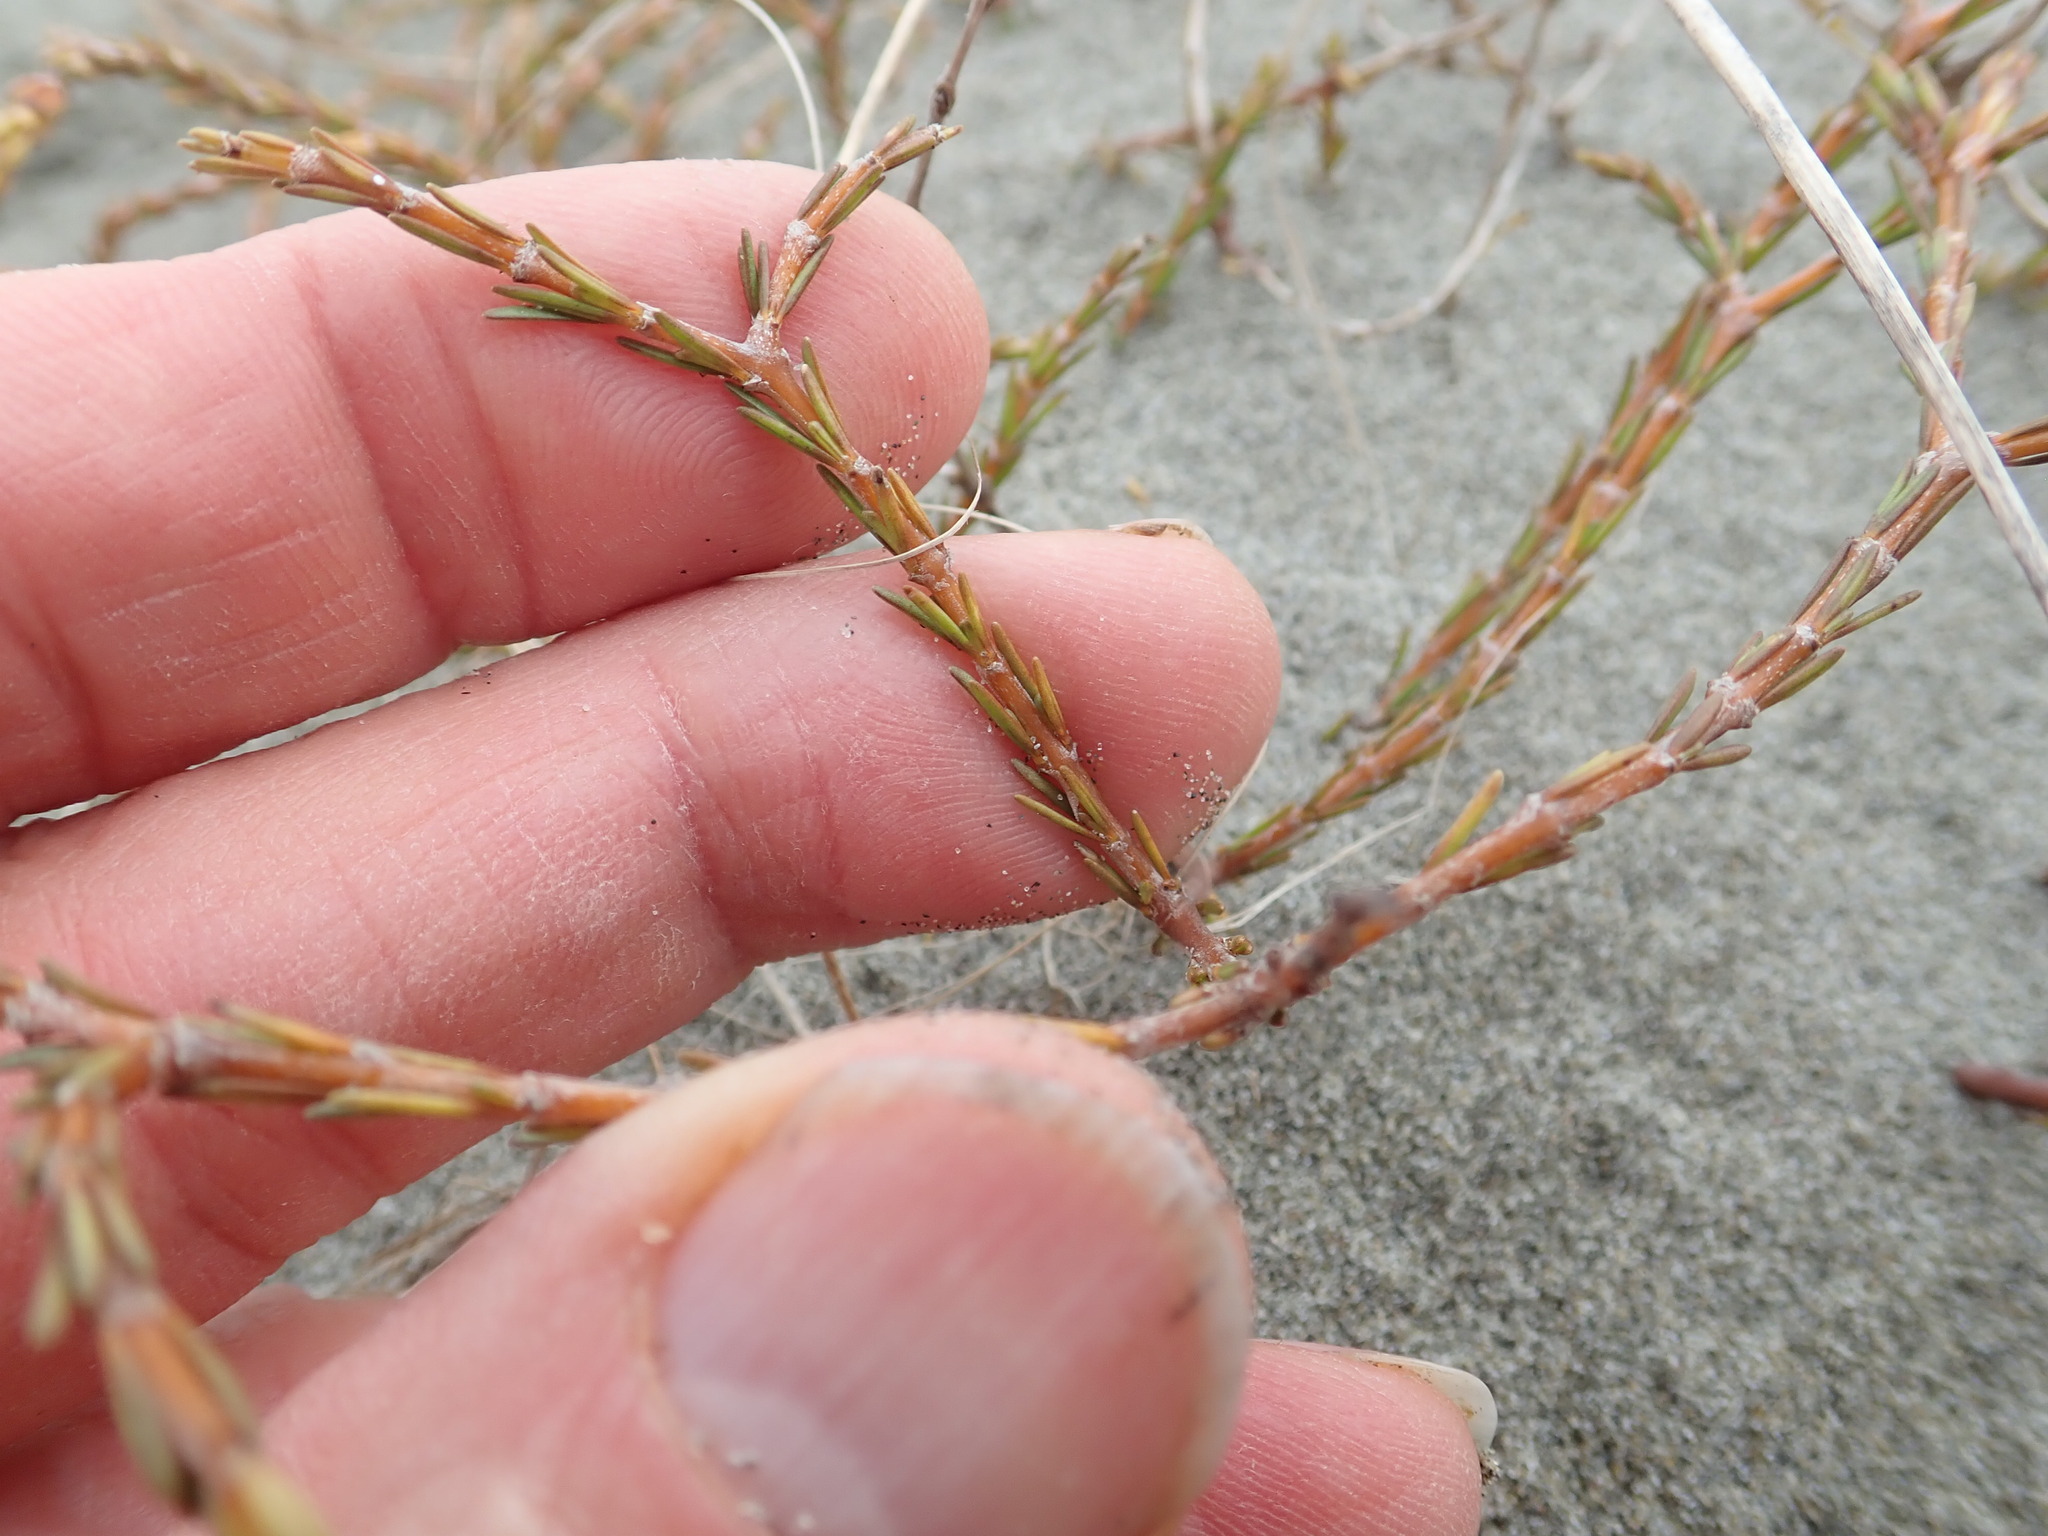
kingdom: Plantae
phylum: Tracheophyta
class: Magnoliopsida
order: Gentianales
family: Rubiaceae
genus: Coprosma
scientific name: Coprosma acerosa
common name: Sand coprosma
